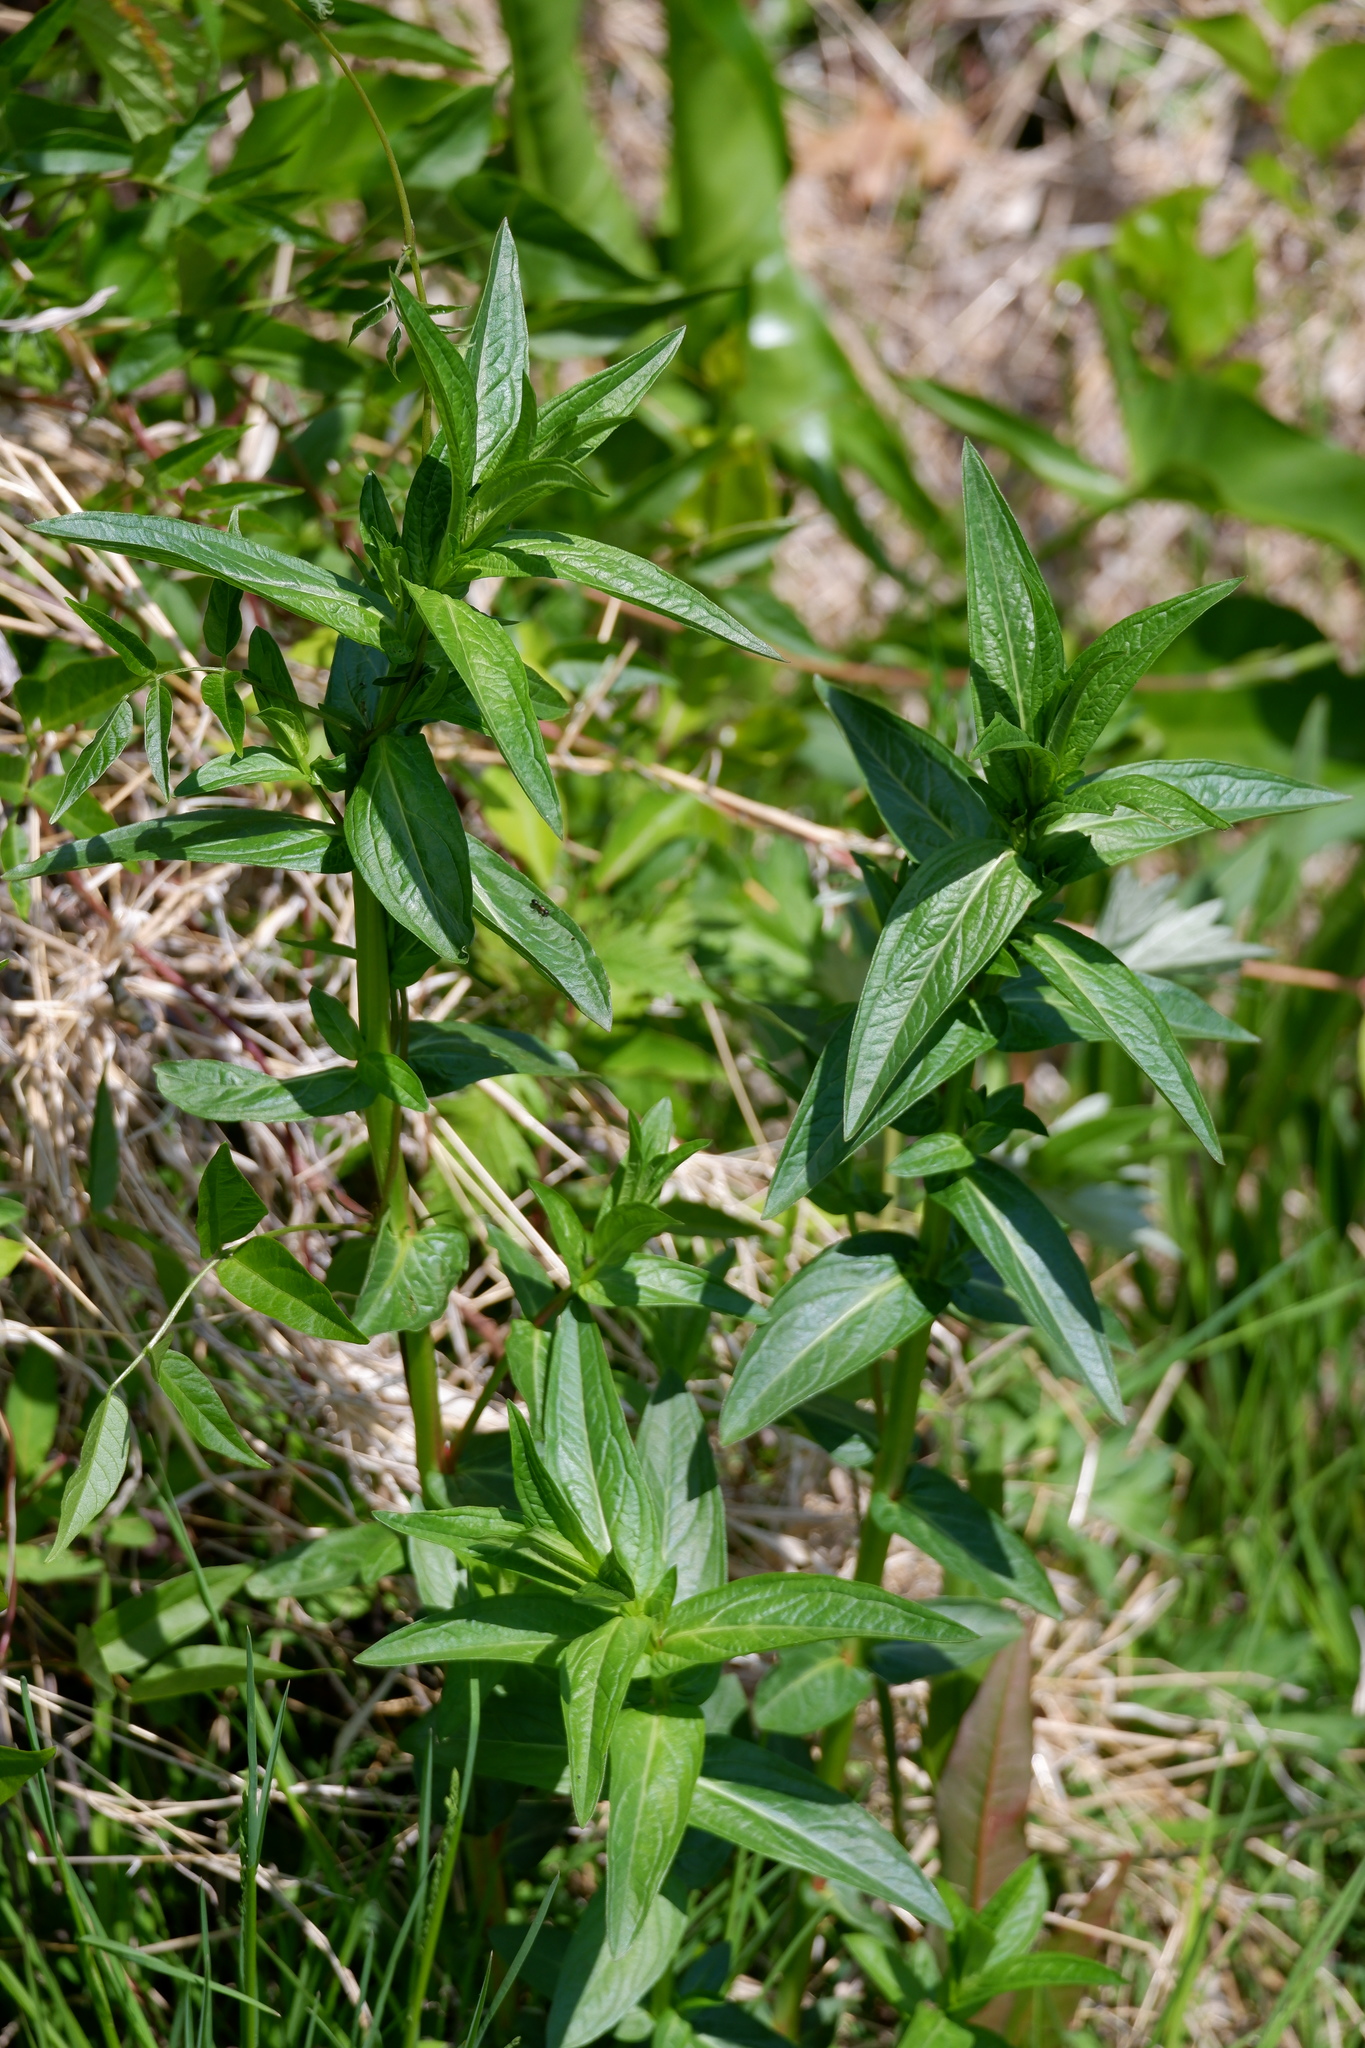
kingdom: Plantae
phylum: Tracheophyta
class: Magnoliopsida
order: Myrtales
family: Lythraceae
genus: Lythrum
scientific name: Lythrum salicaria
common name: Purple loosestrife
